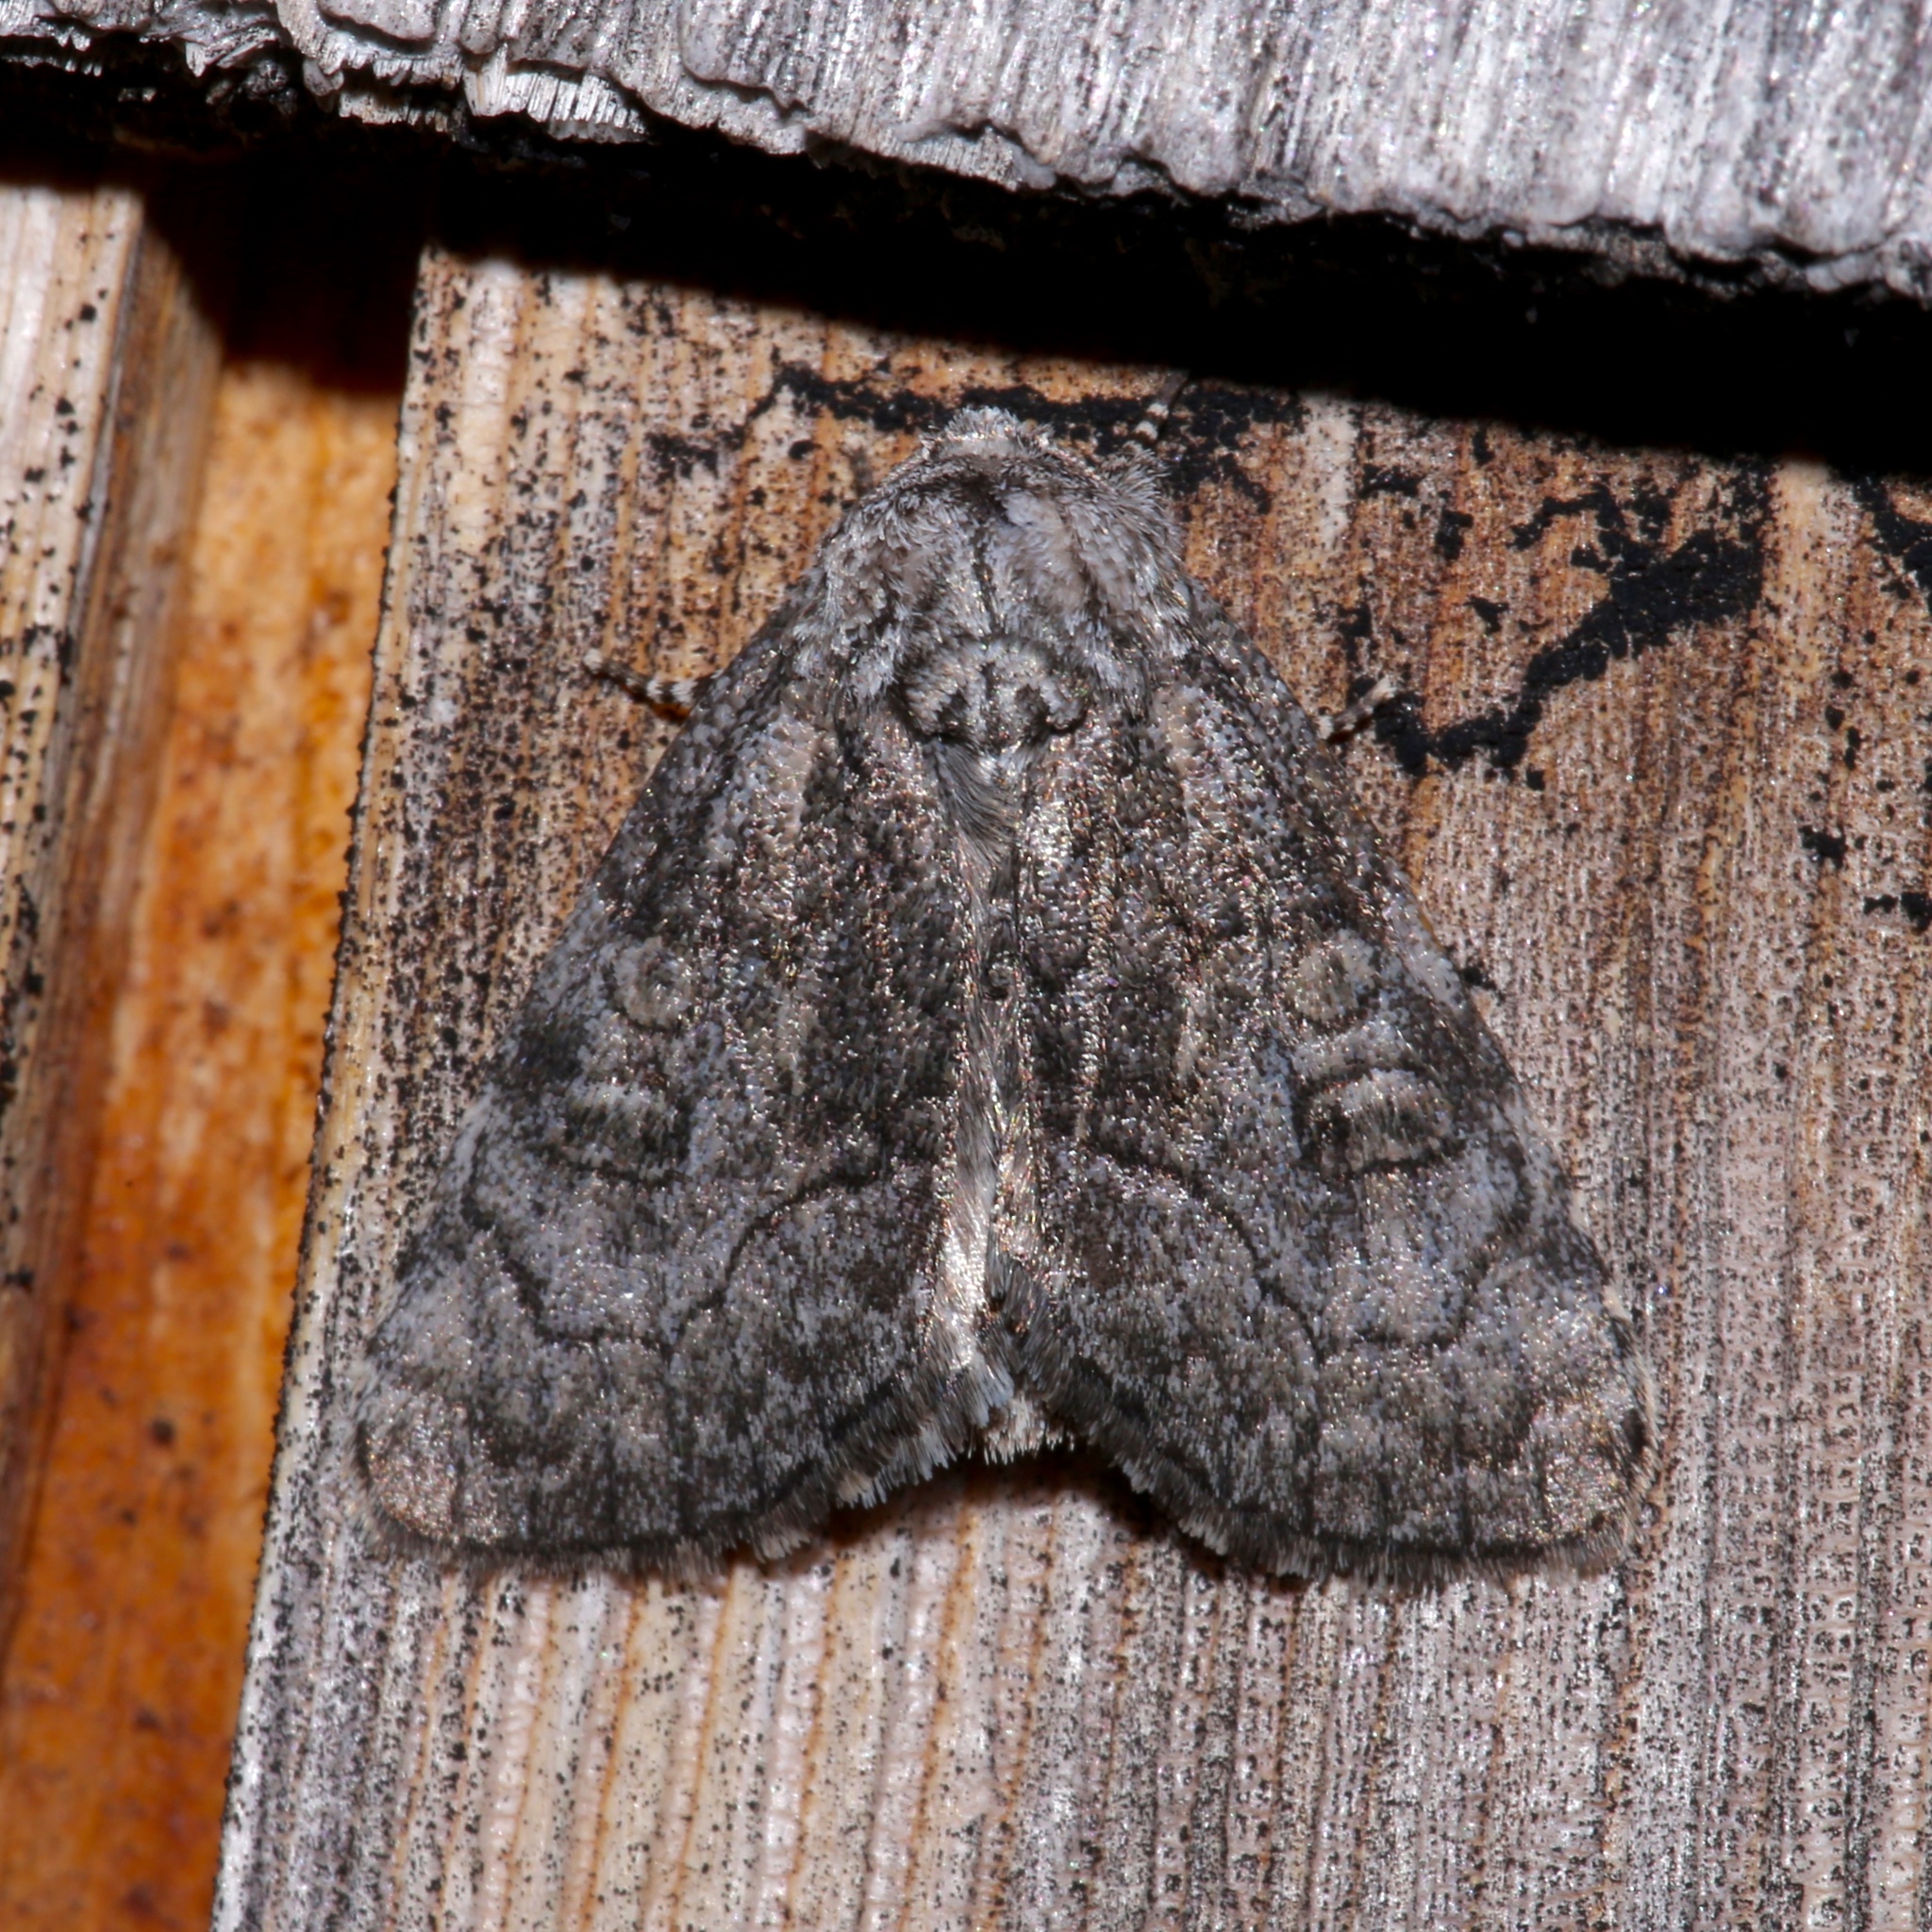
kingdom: Animalia
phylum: Arthropoda
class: Insecta
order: Lepidoptera
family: Noctuidae
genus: Raphia
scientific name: Raphia frater
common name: Brother
